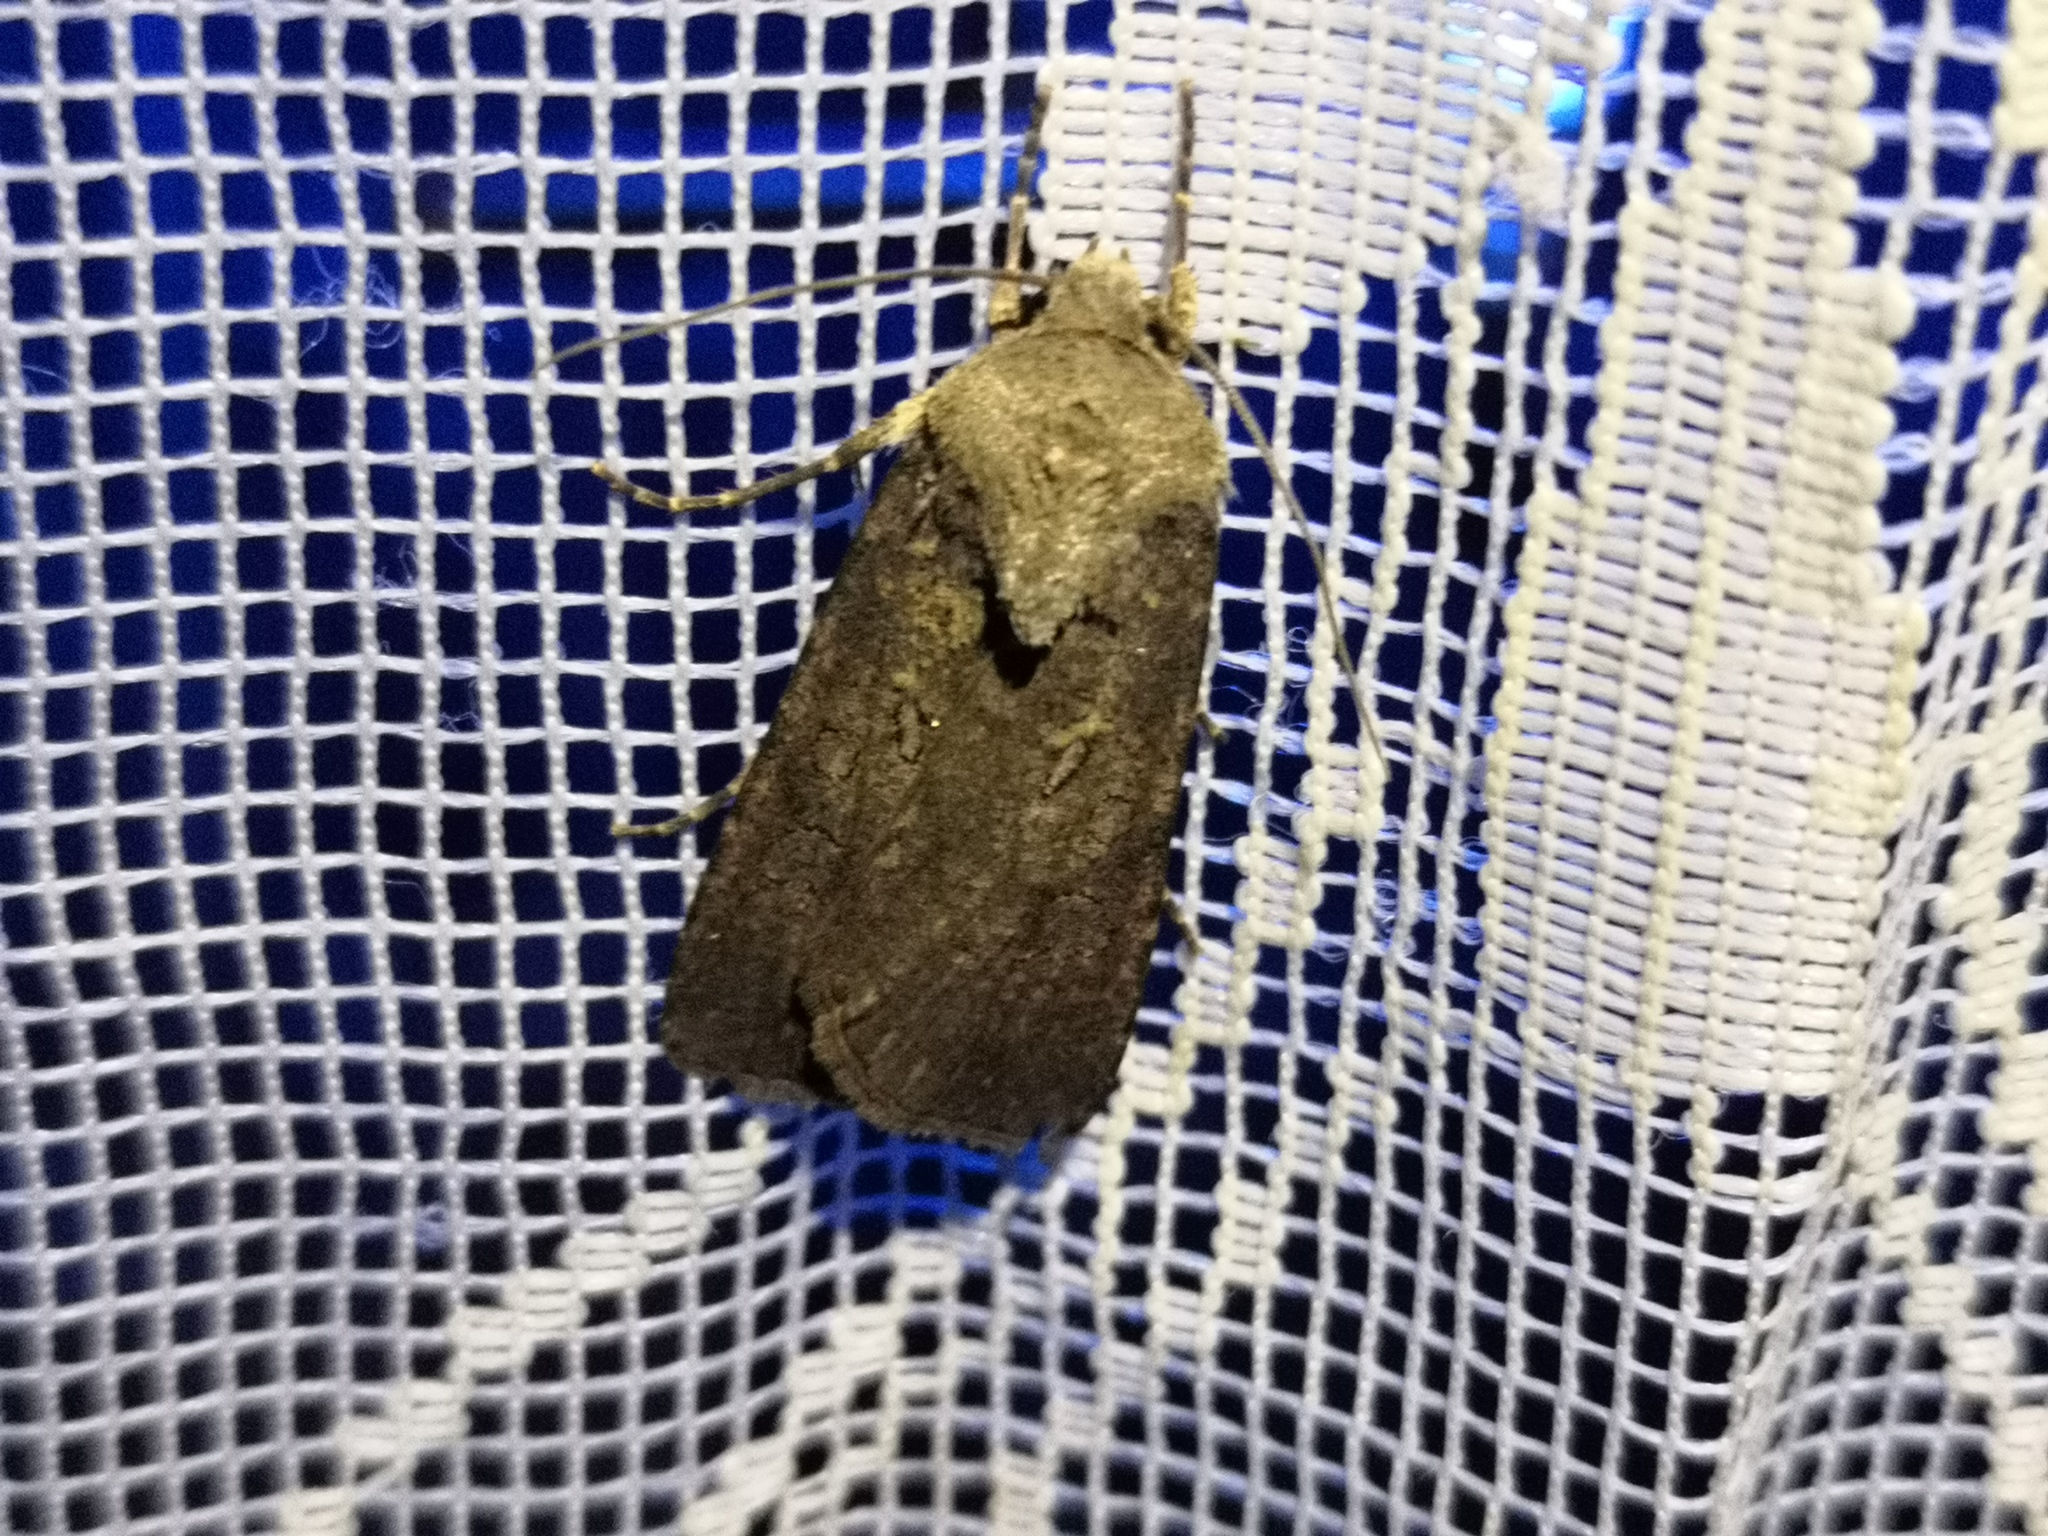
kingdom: Animalia
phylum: Arthropoda
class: Insecta
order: Lepidoptera
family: Noctuidae
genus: Agrotis
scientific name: Agrotis segetum
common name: Turnip moth
